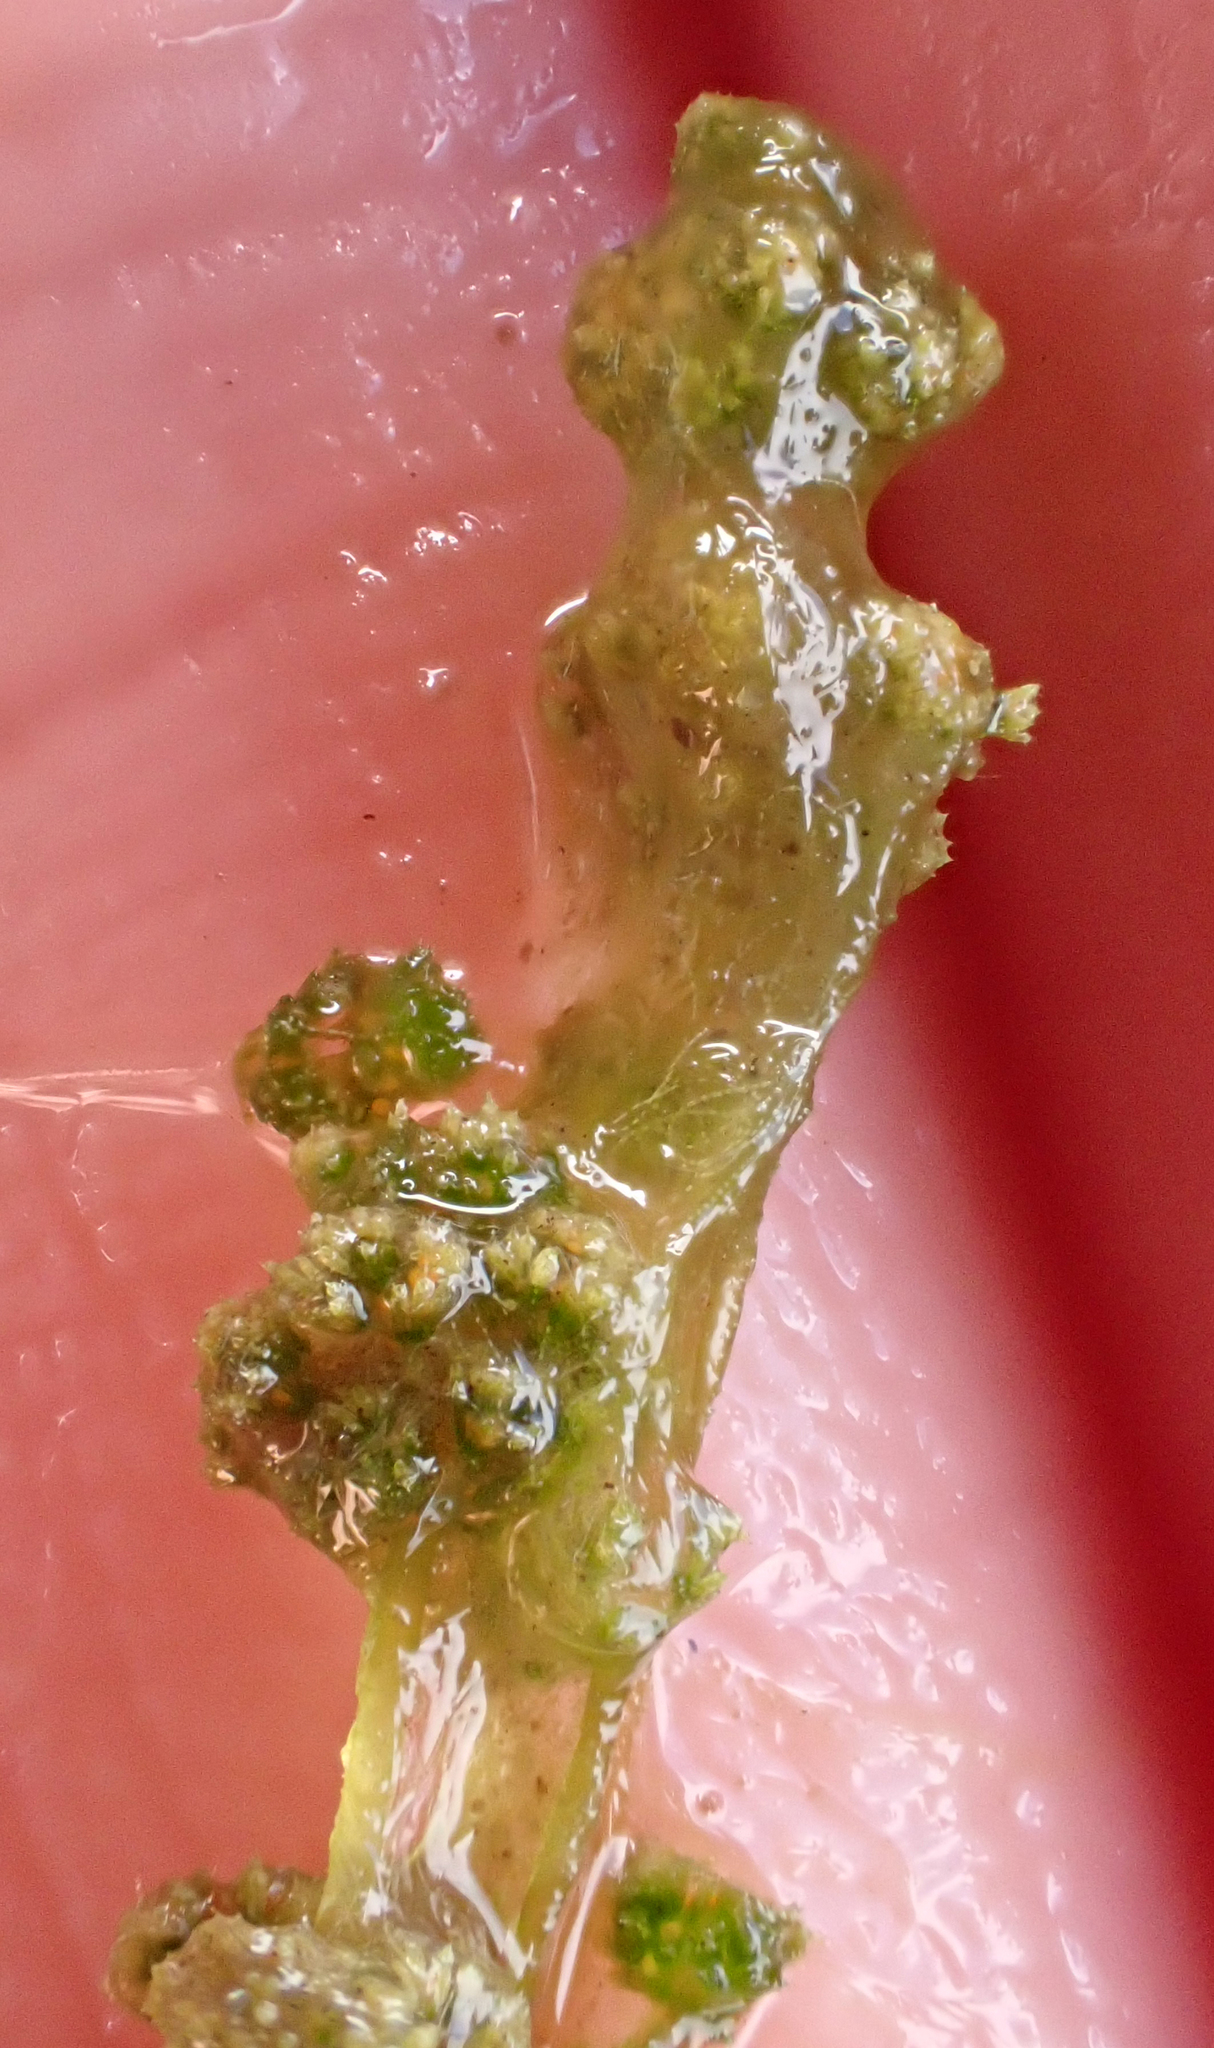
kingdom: Plantae
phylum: Charophyta
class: Charophyceae
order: Charales
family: Characeae
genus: Nitella
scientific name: Nitella hyalina
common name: Many-branched stonewort
